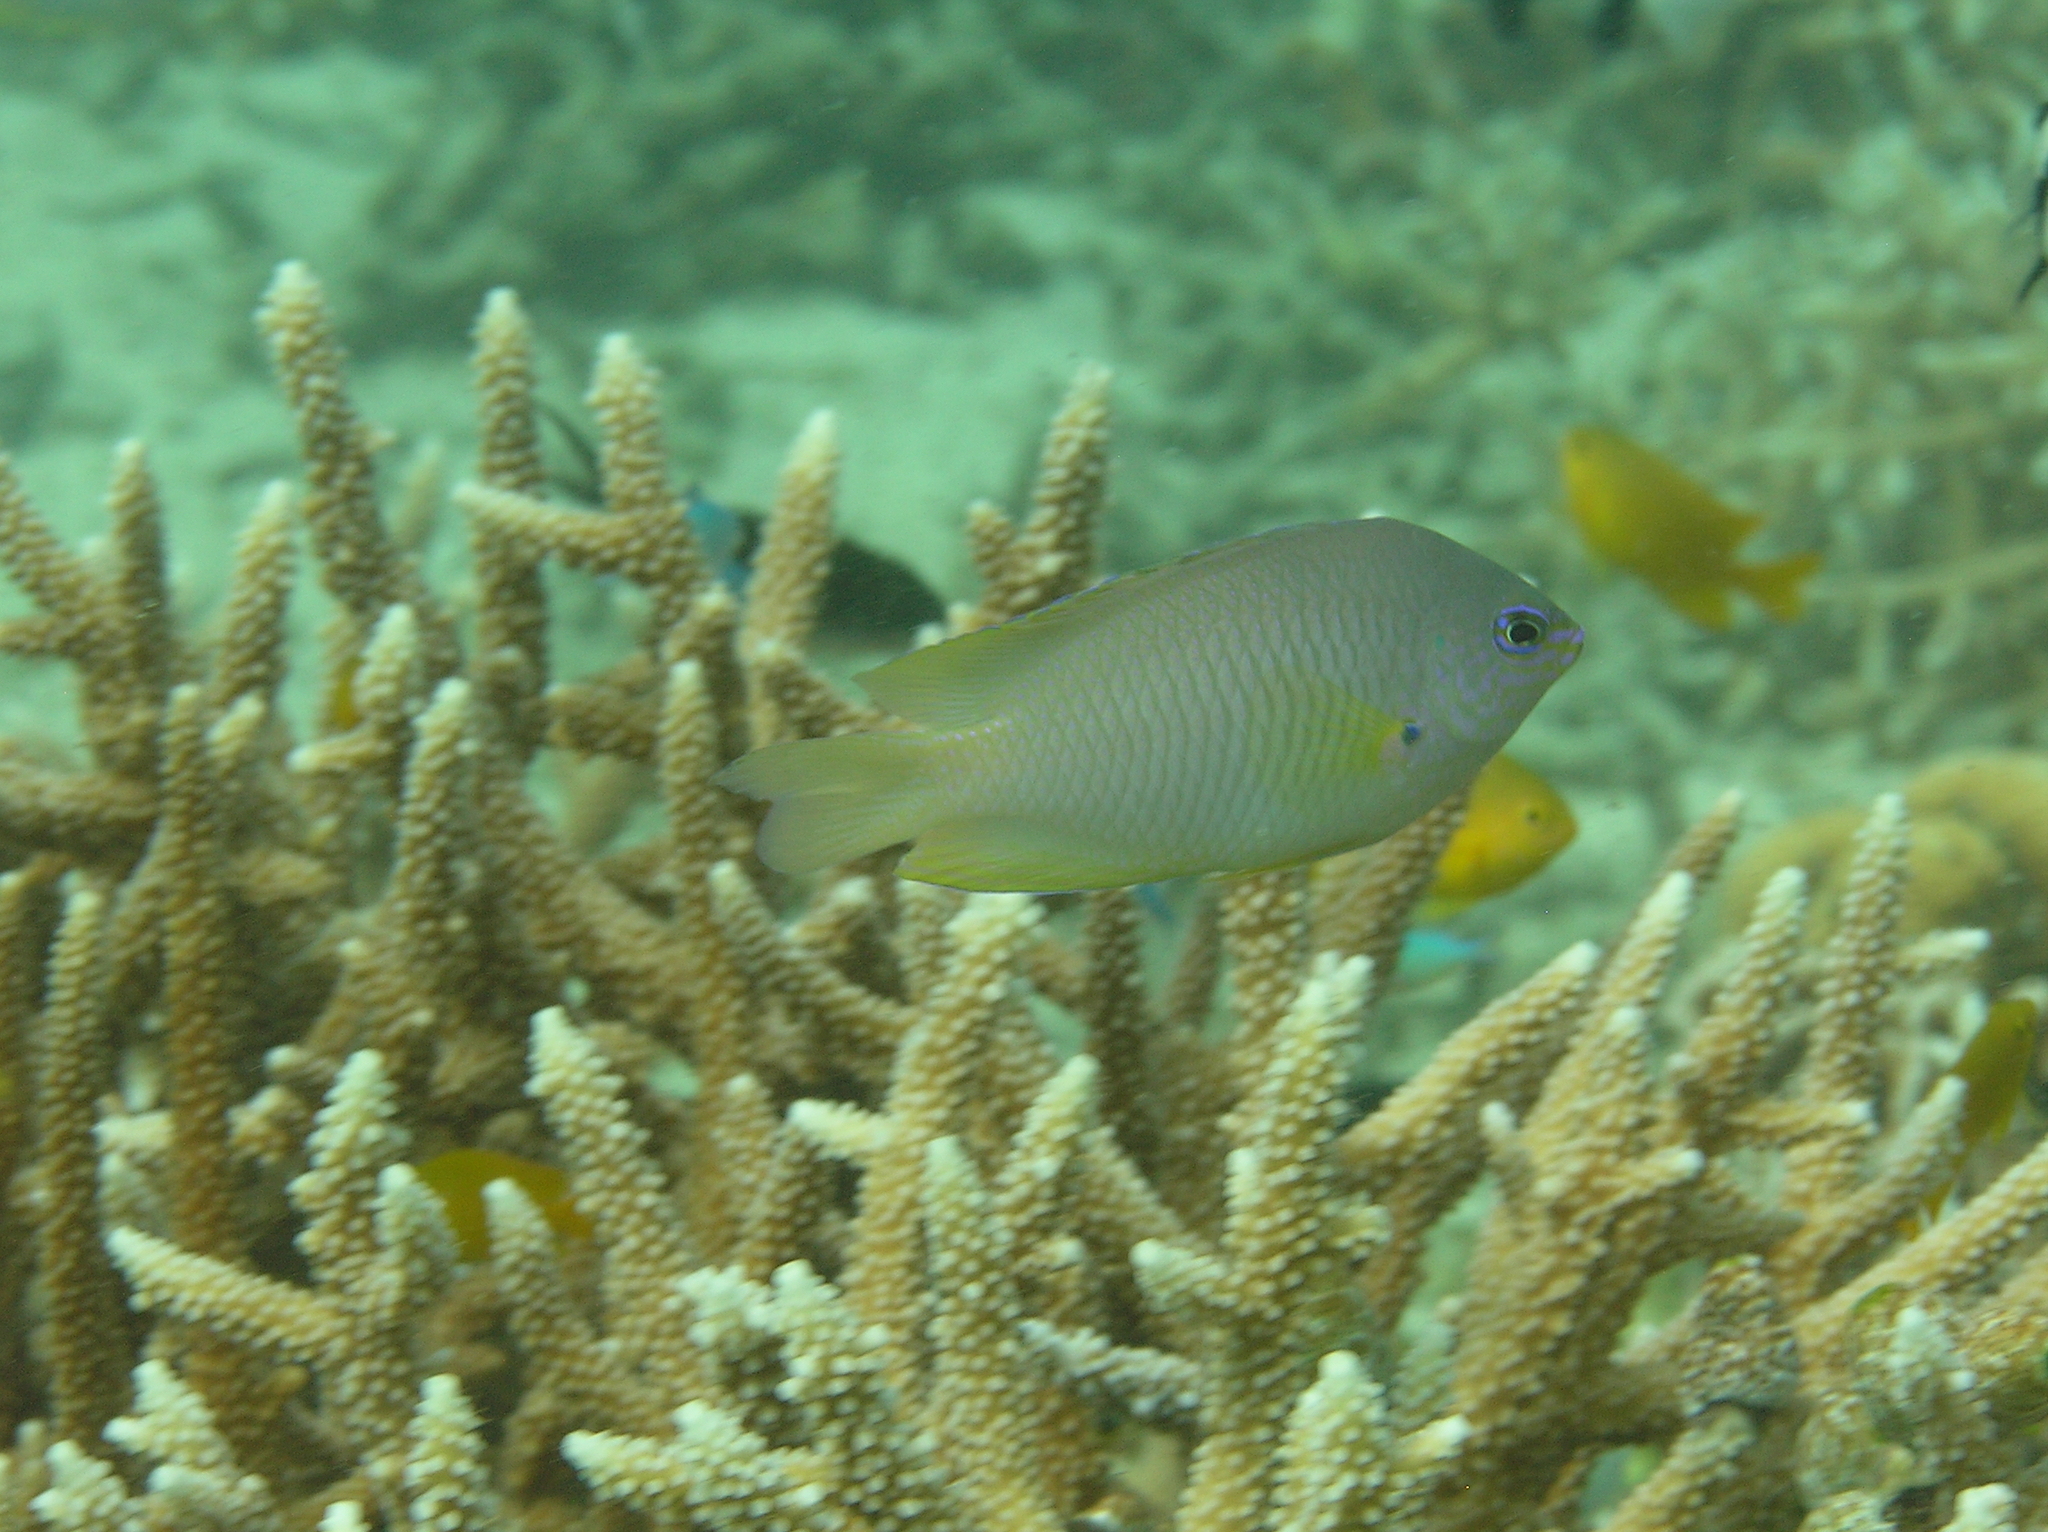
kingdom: Animalia
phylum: Chordata
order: Perciformes
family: Pomacentridae
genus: Pomacentrus
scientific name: Pomacentrus amboinensis
